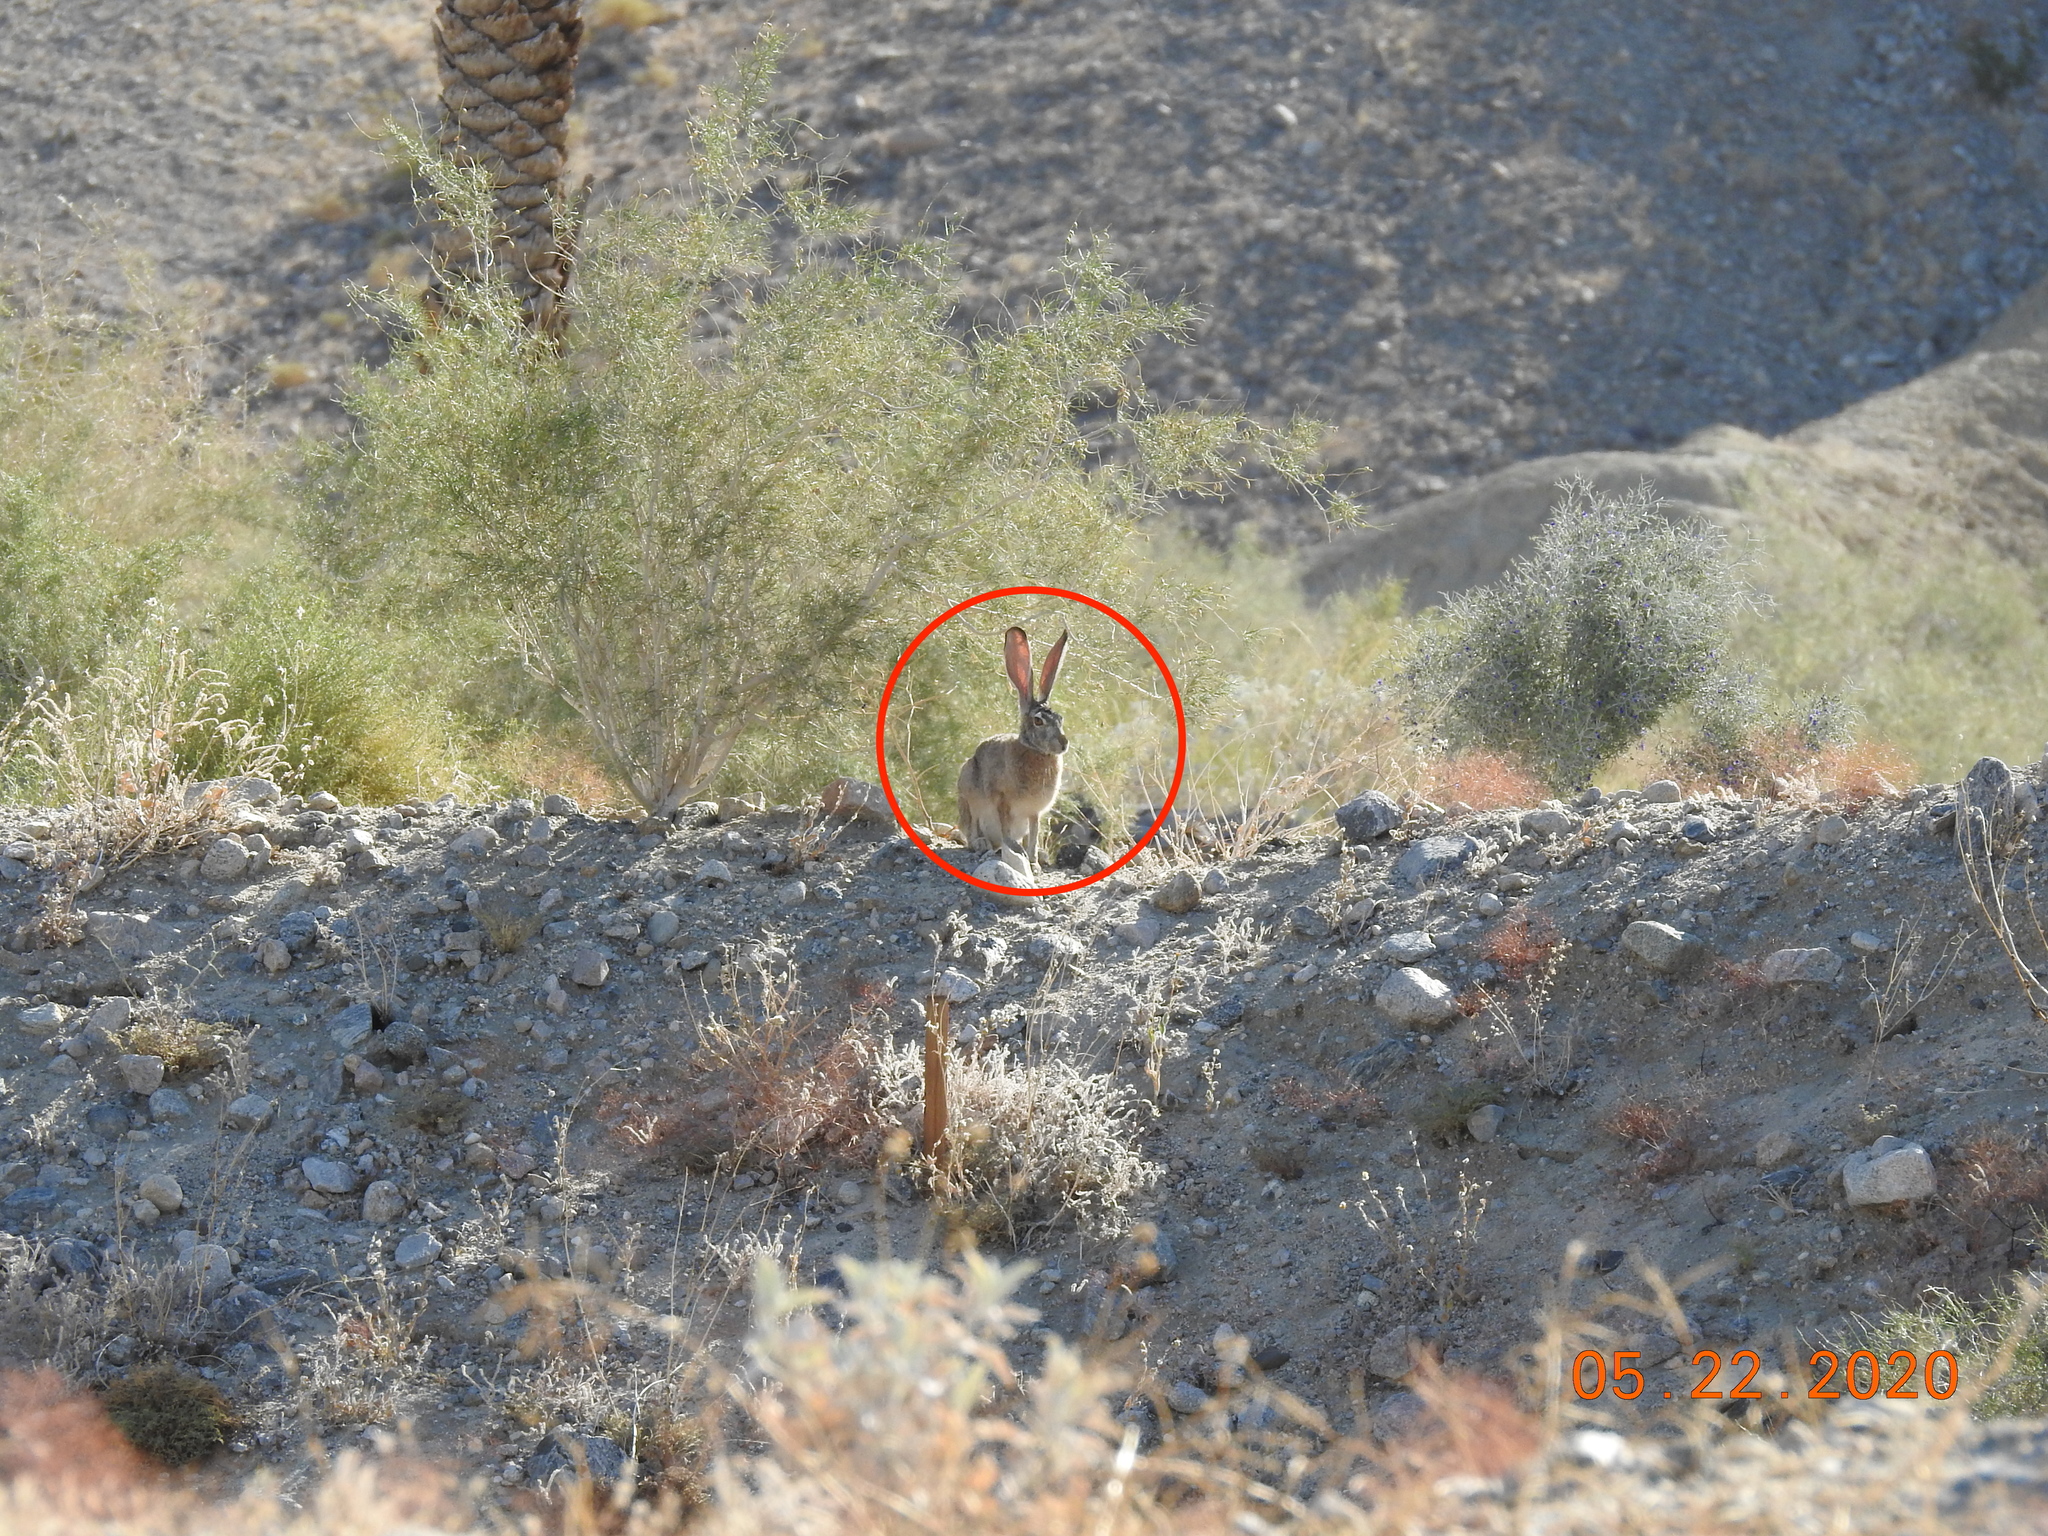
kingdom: Animalia
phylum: Chordata
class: Mammalia
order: Lagomorpha
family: Leporidae
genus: Lepus
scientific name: Lepus californicus
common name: Black-tailed jackrabbit
